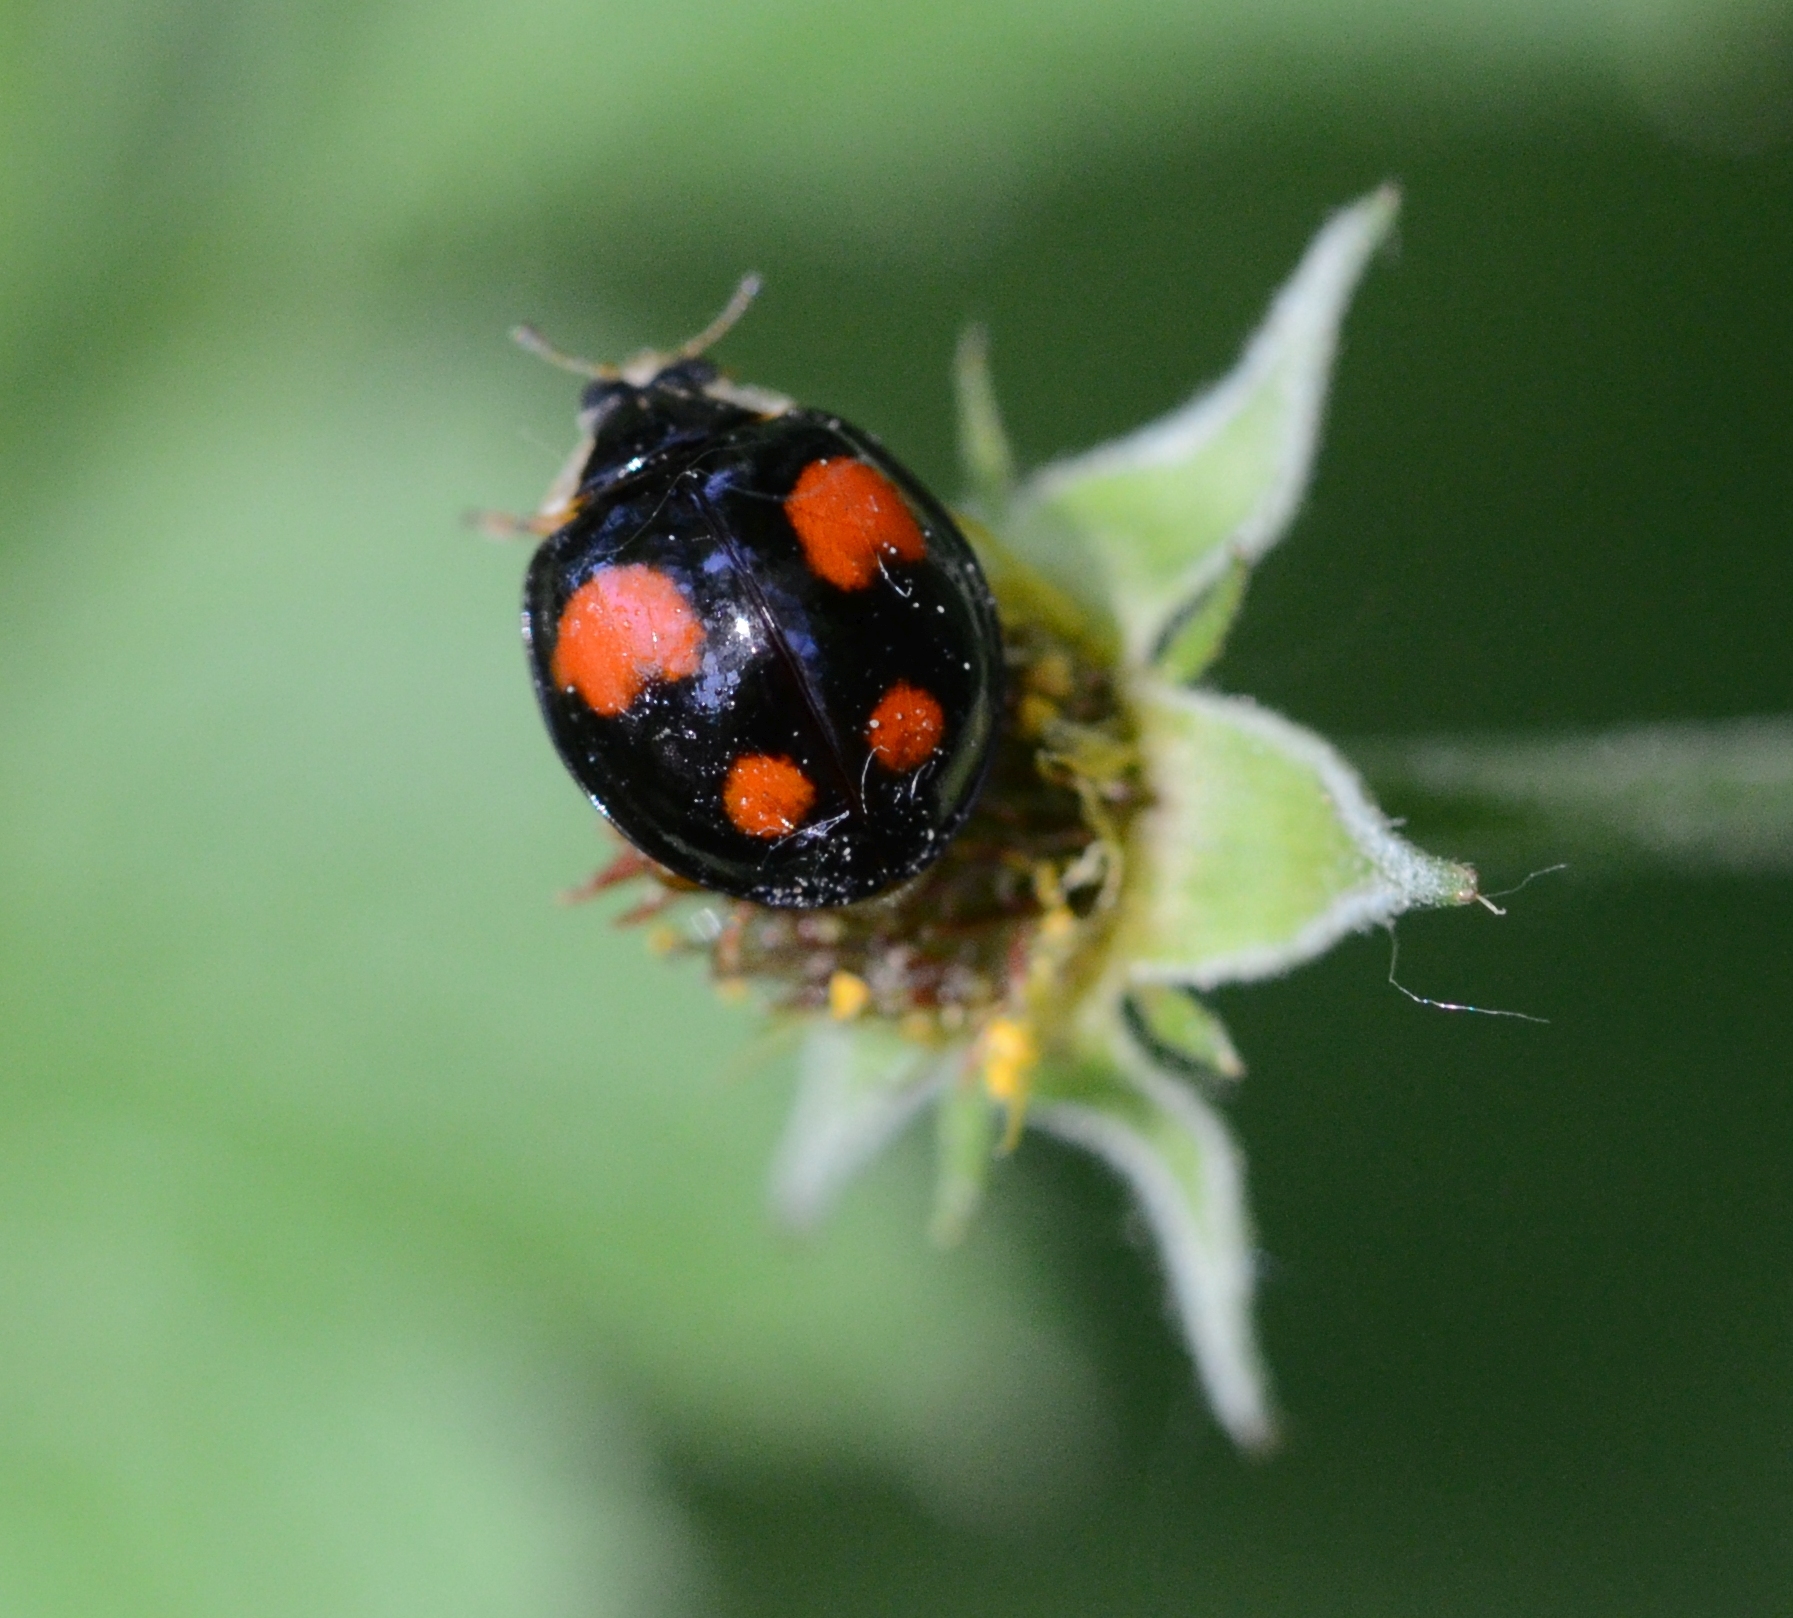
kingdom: Animalia
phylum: Arthropoda
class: Insecta
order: Coleoptera
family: Coccinellidae
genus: Harmonia
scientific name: Harmonia axyridis
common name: Harlequin ladybird
